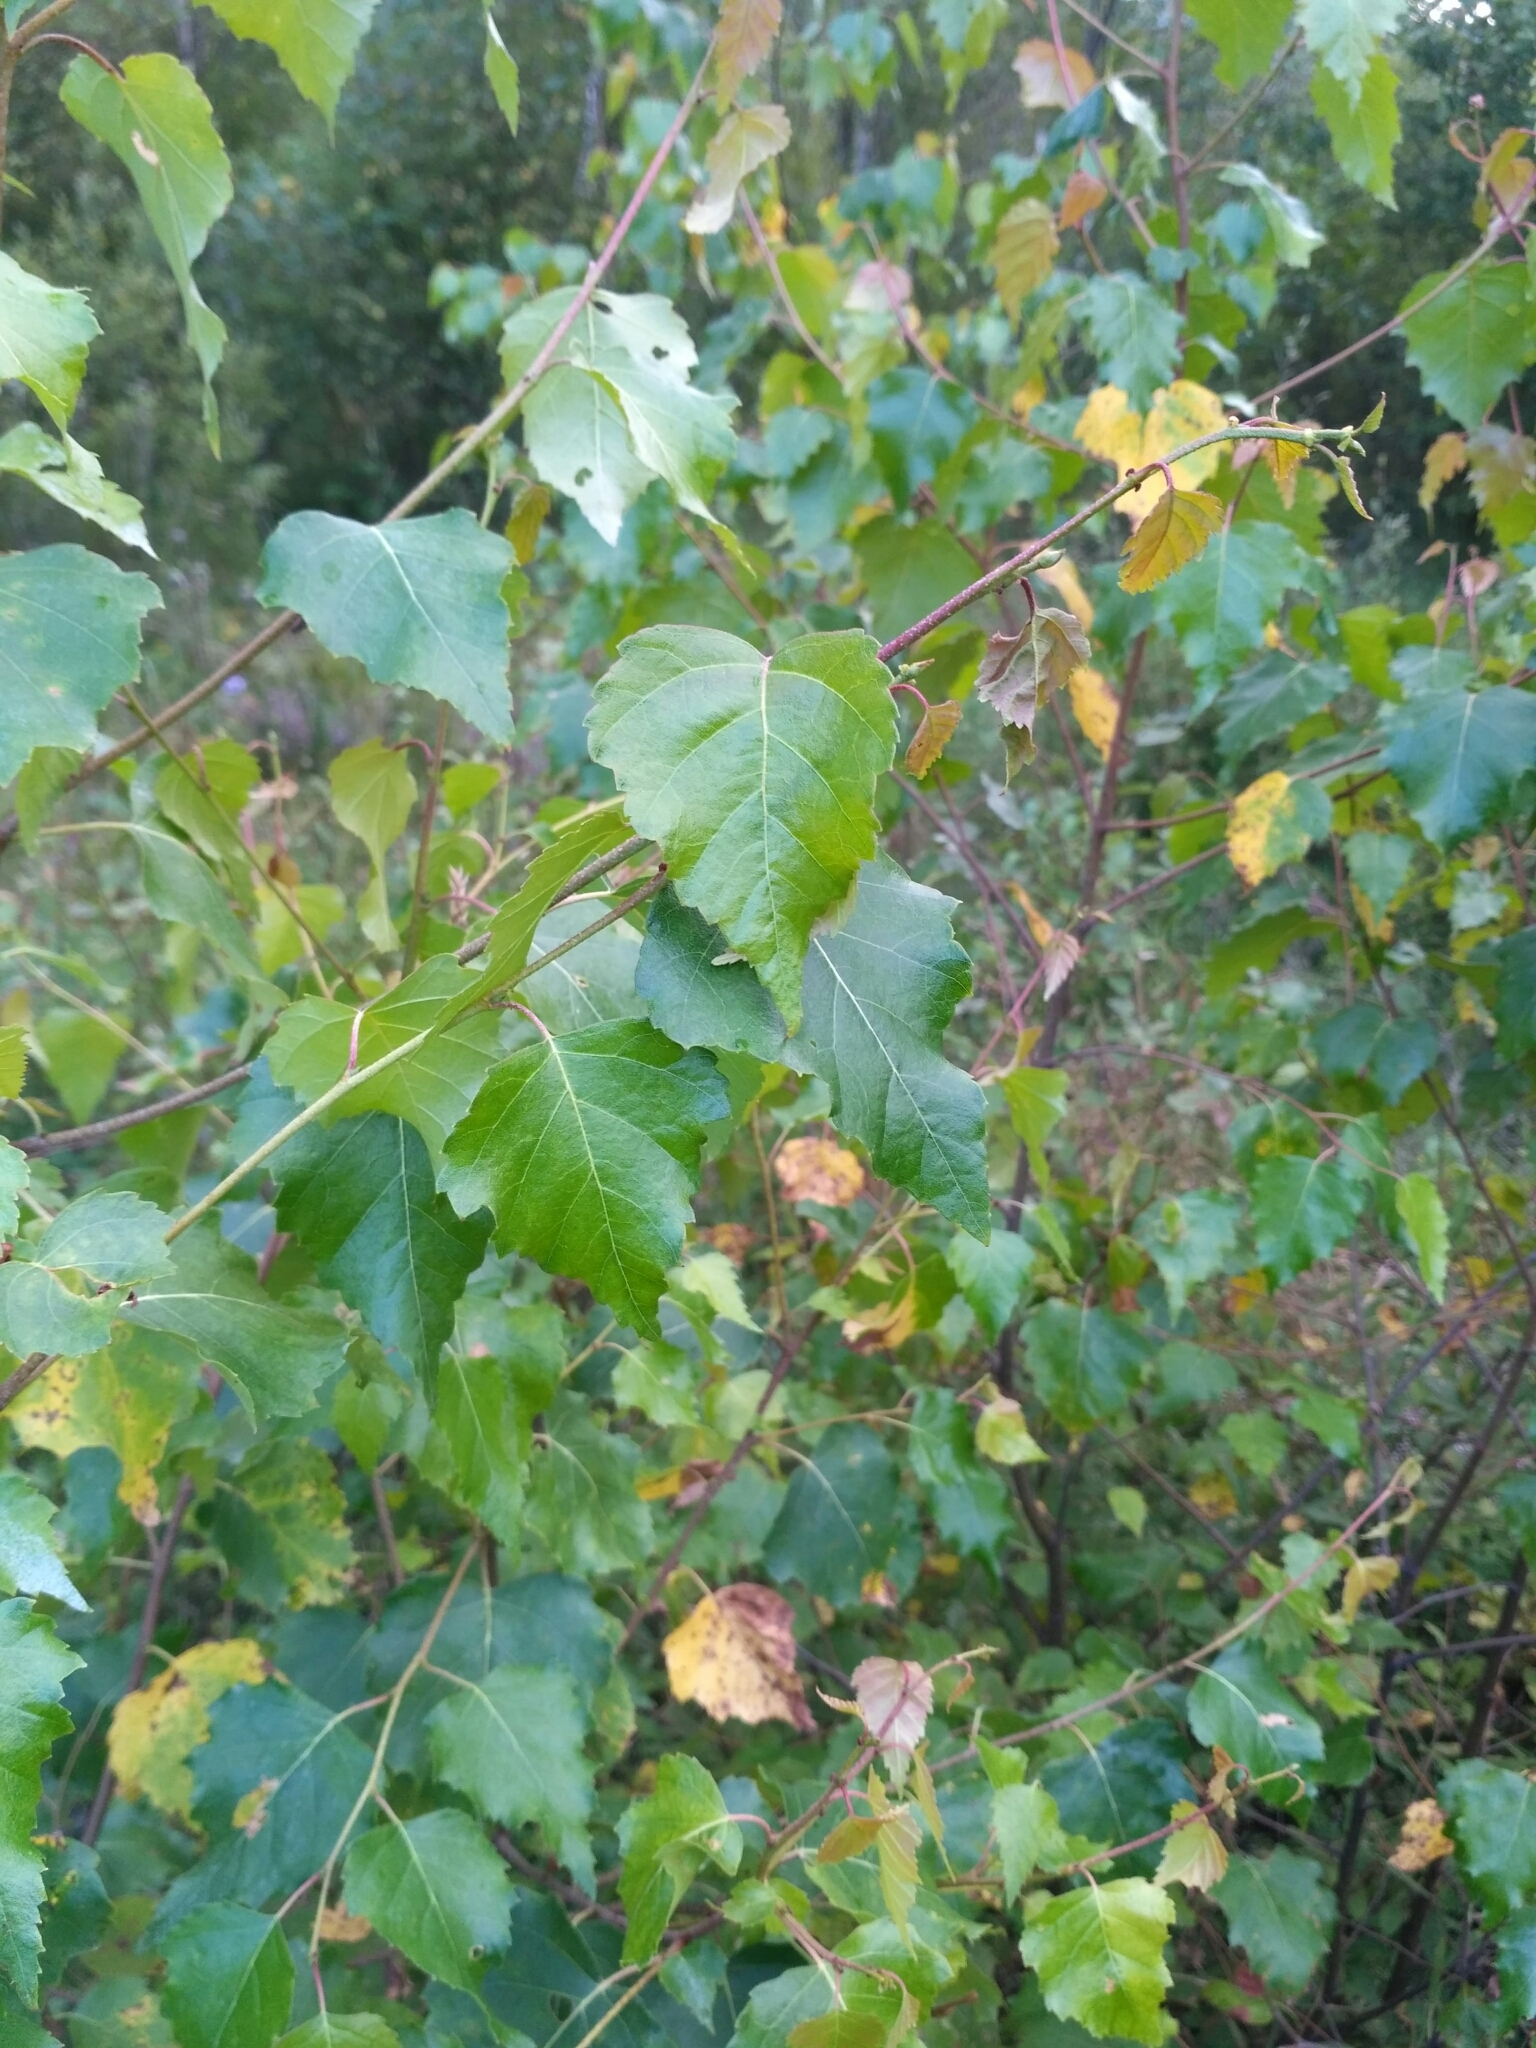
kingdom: Plantae
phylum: Tracheophyta
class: Magnoliopsida
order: Fagales
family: Betulaceae
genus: Betula
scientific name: Betula pendula
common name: Silver birch
